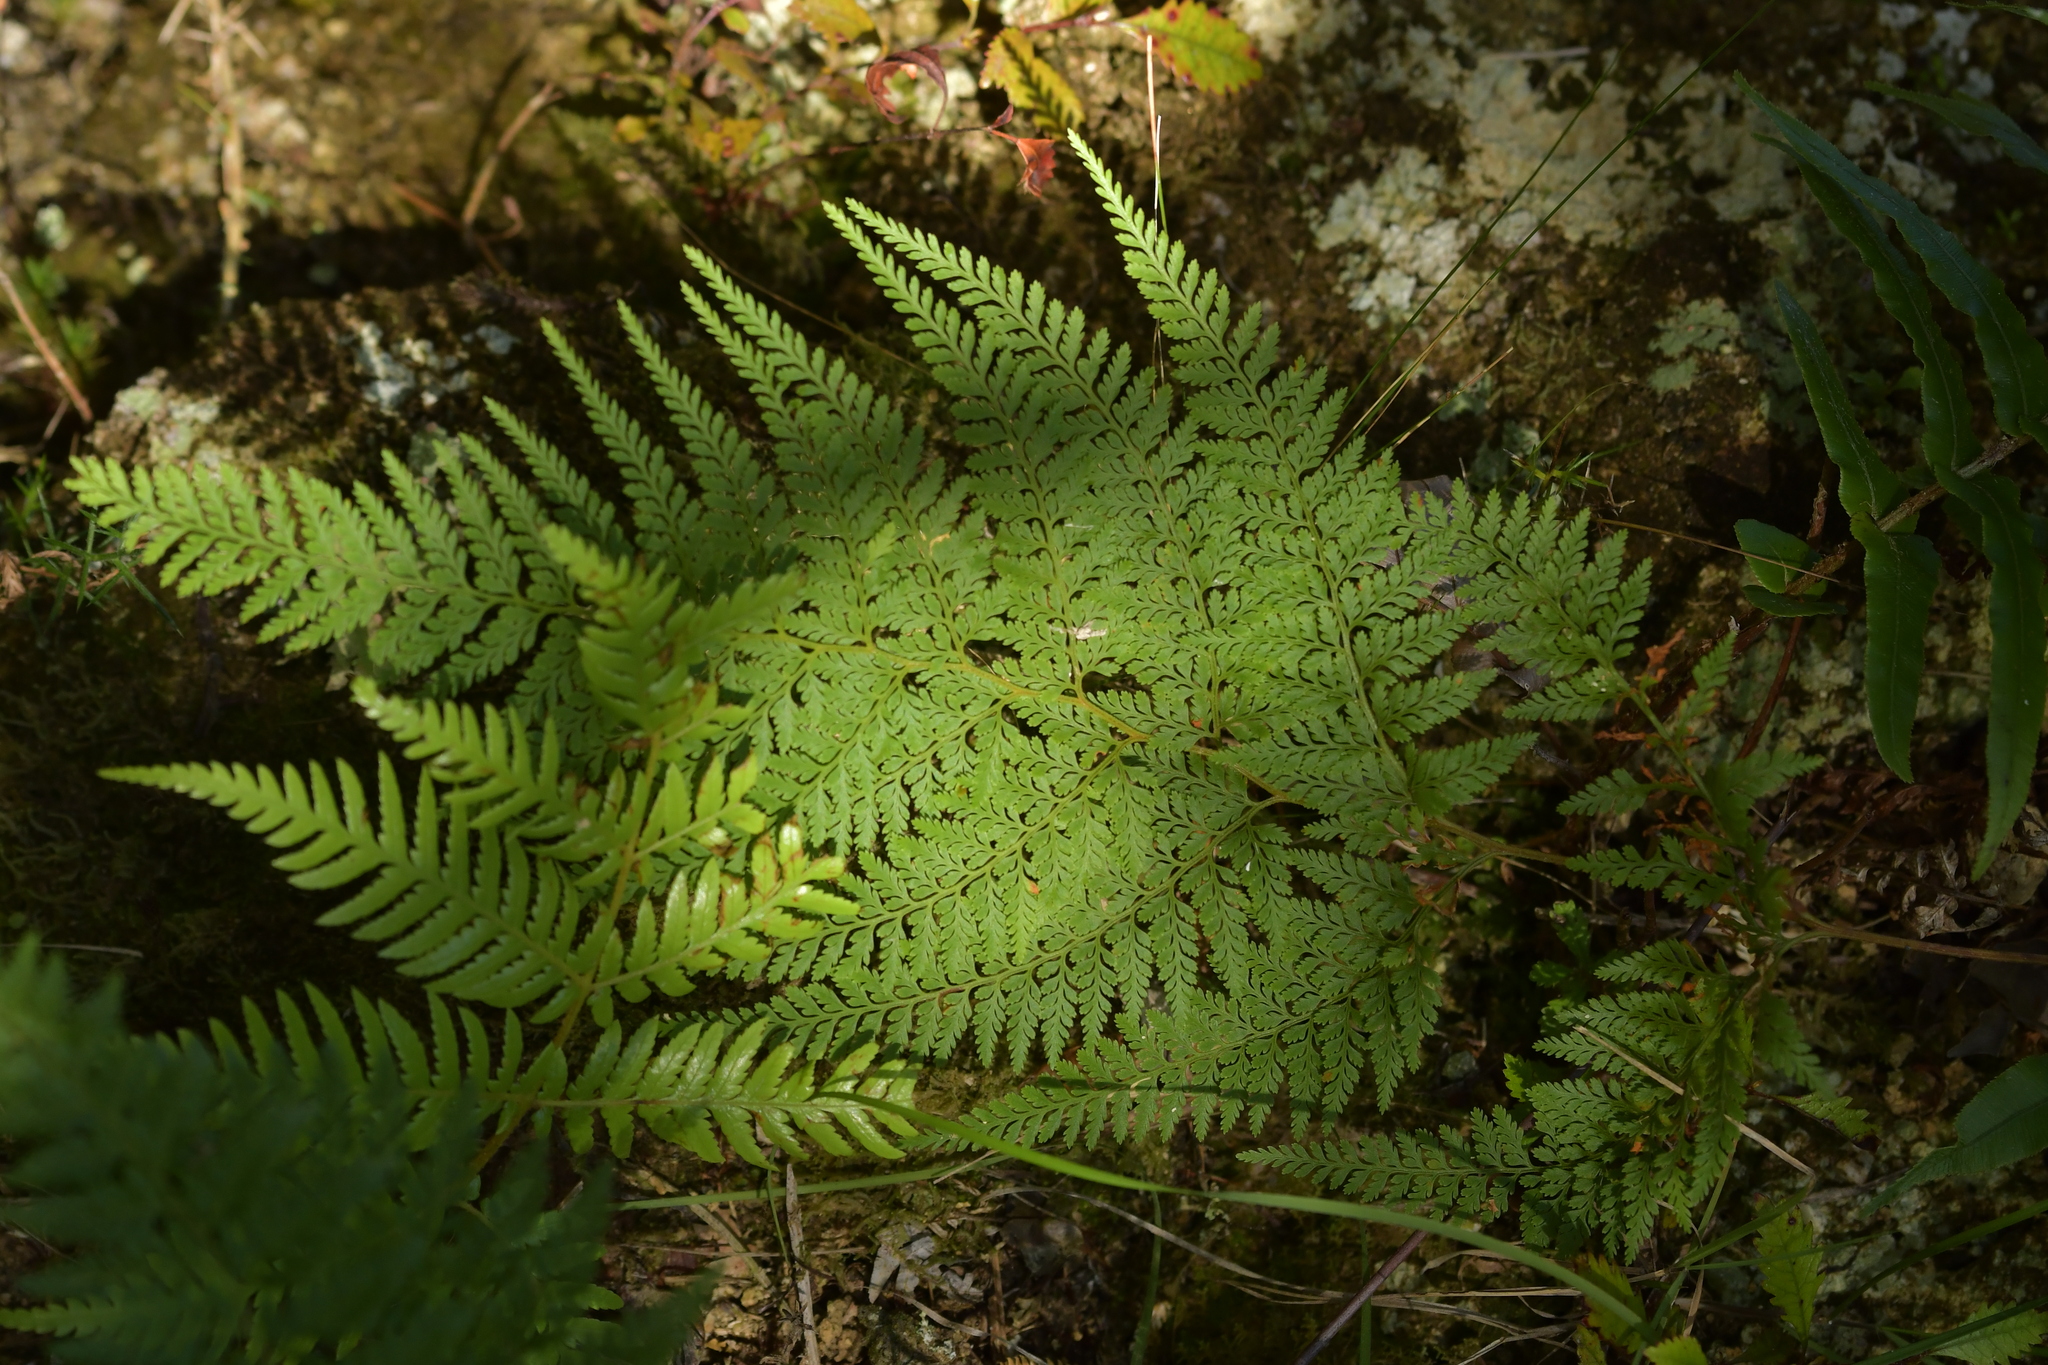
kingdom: Plantae
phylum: Tracheophyta
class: Polypodiopsida
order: Polypodiales
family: Dennstaedtiaceae
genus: Paesia
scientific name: Paesia scaberula
